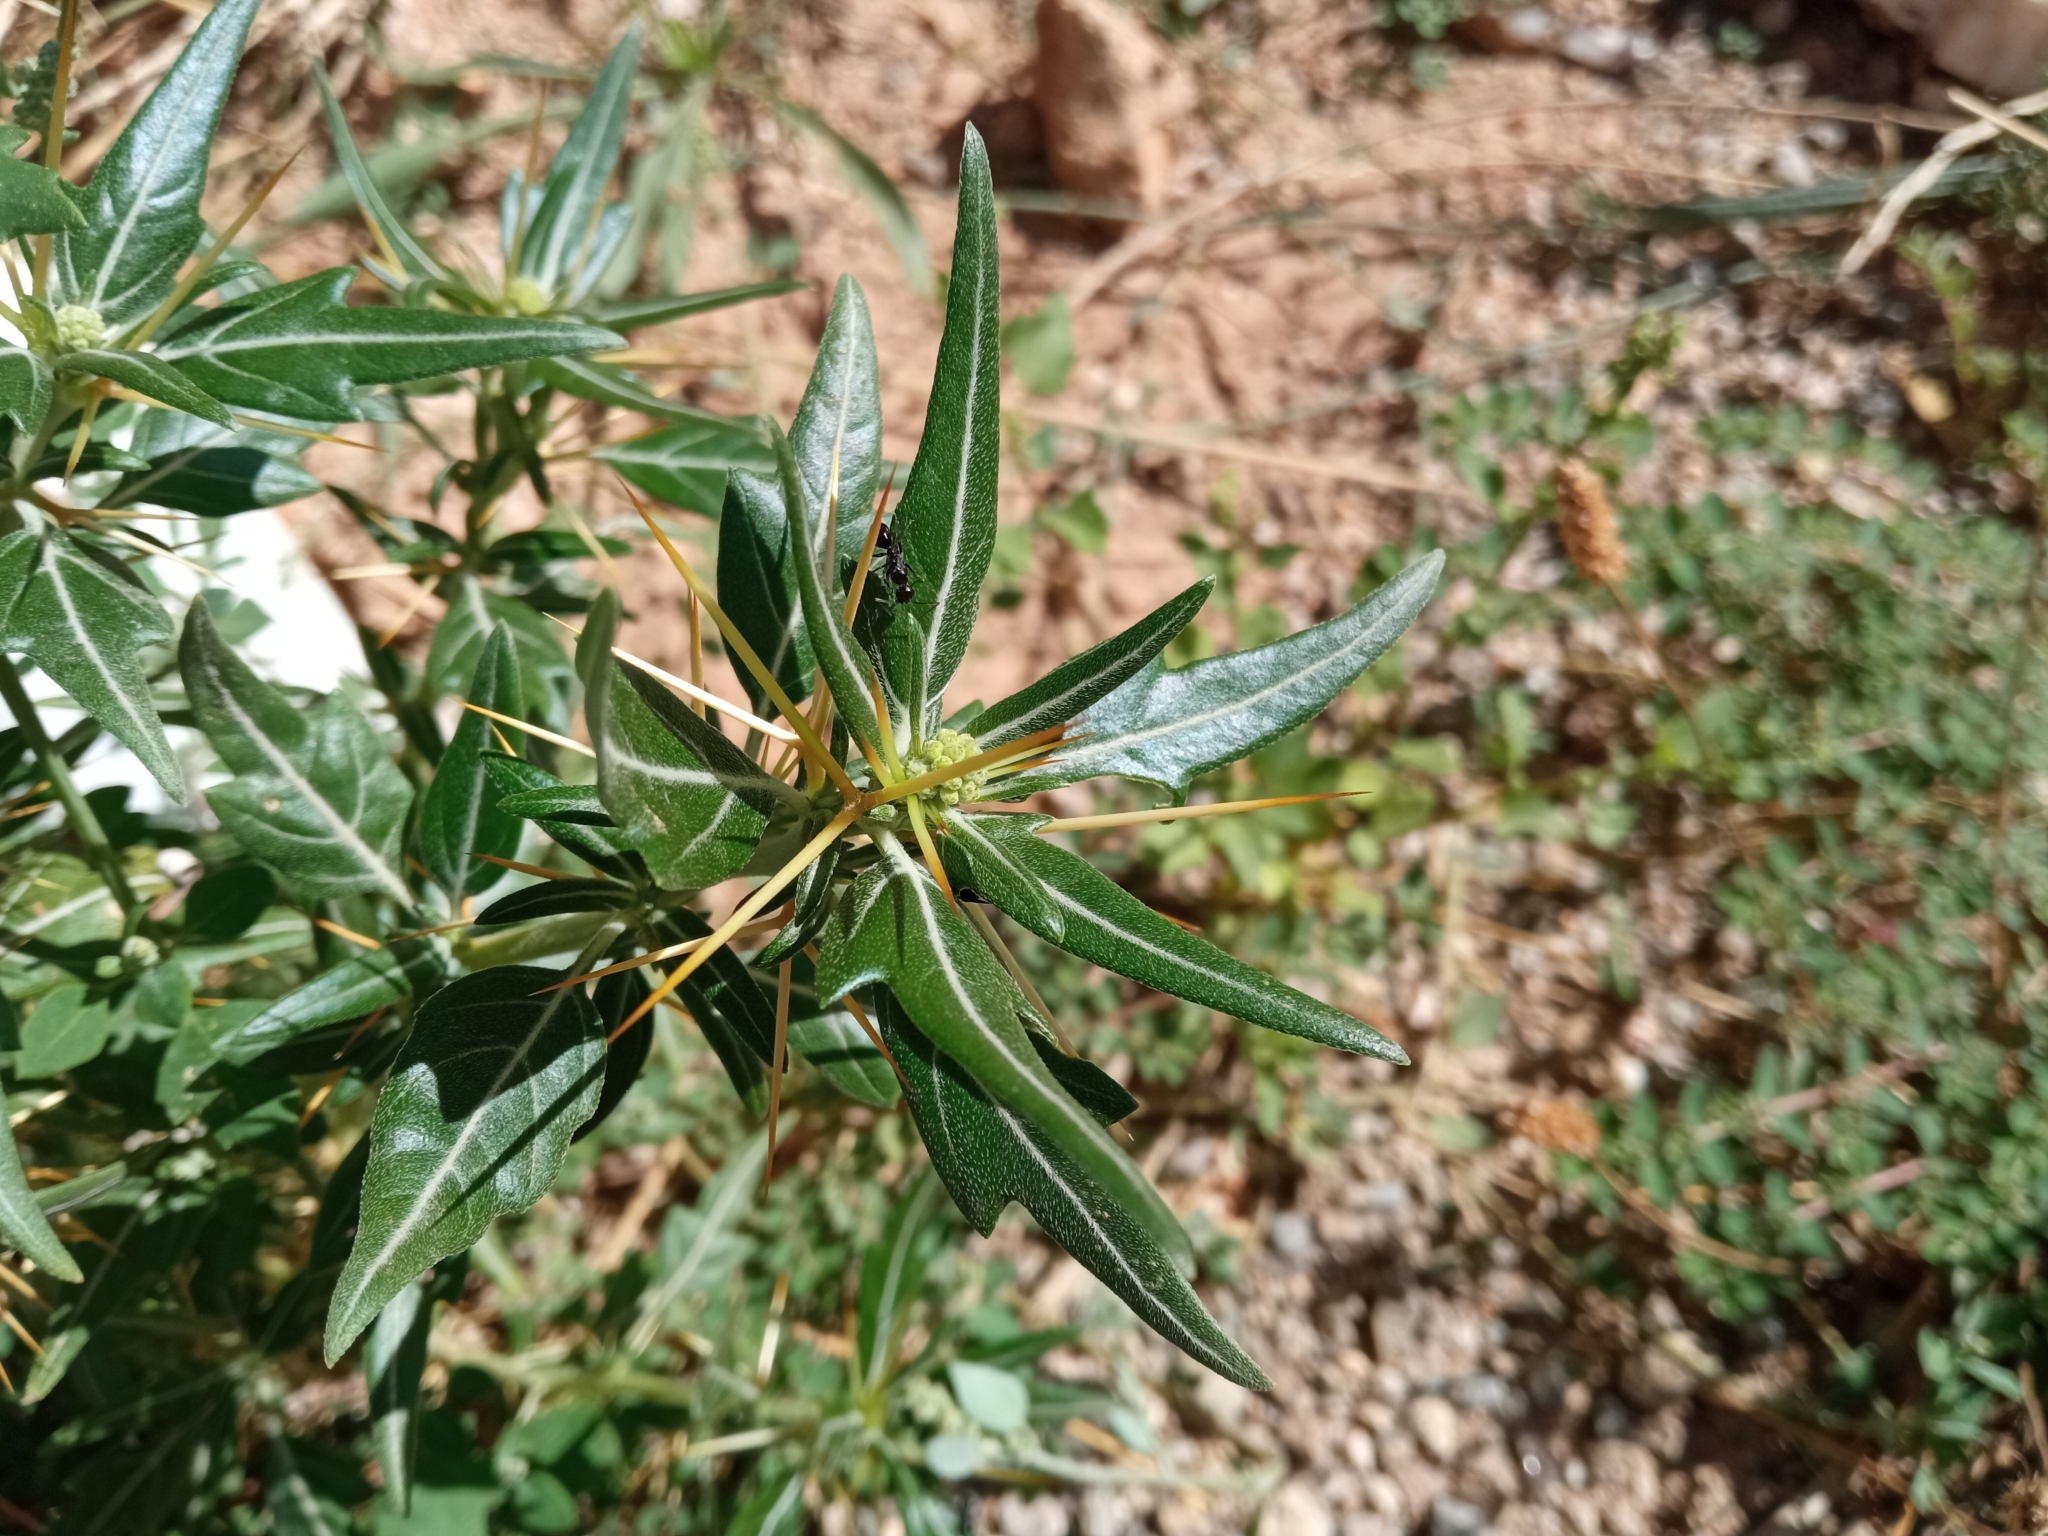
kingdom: Plantae
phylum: Tracheophyta
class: Magnoliopsida
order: Asterales
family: Asteraceae
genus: Xanthium
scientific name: Xanthium spinosum
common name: Spiny cocklebur
